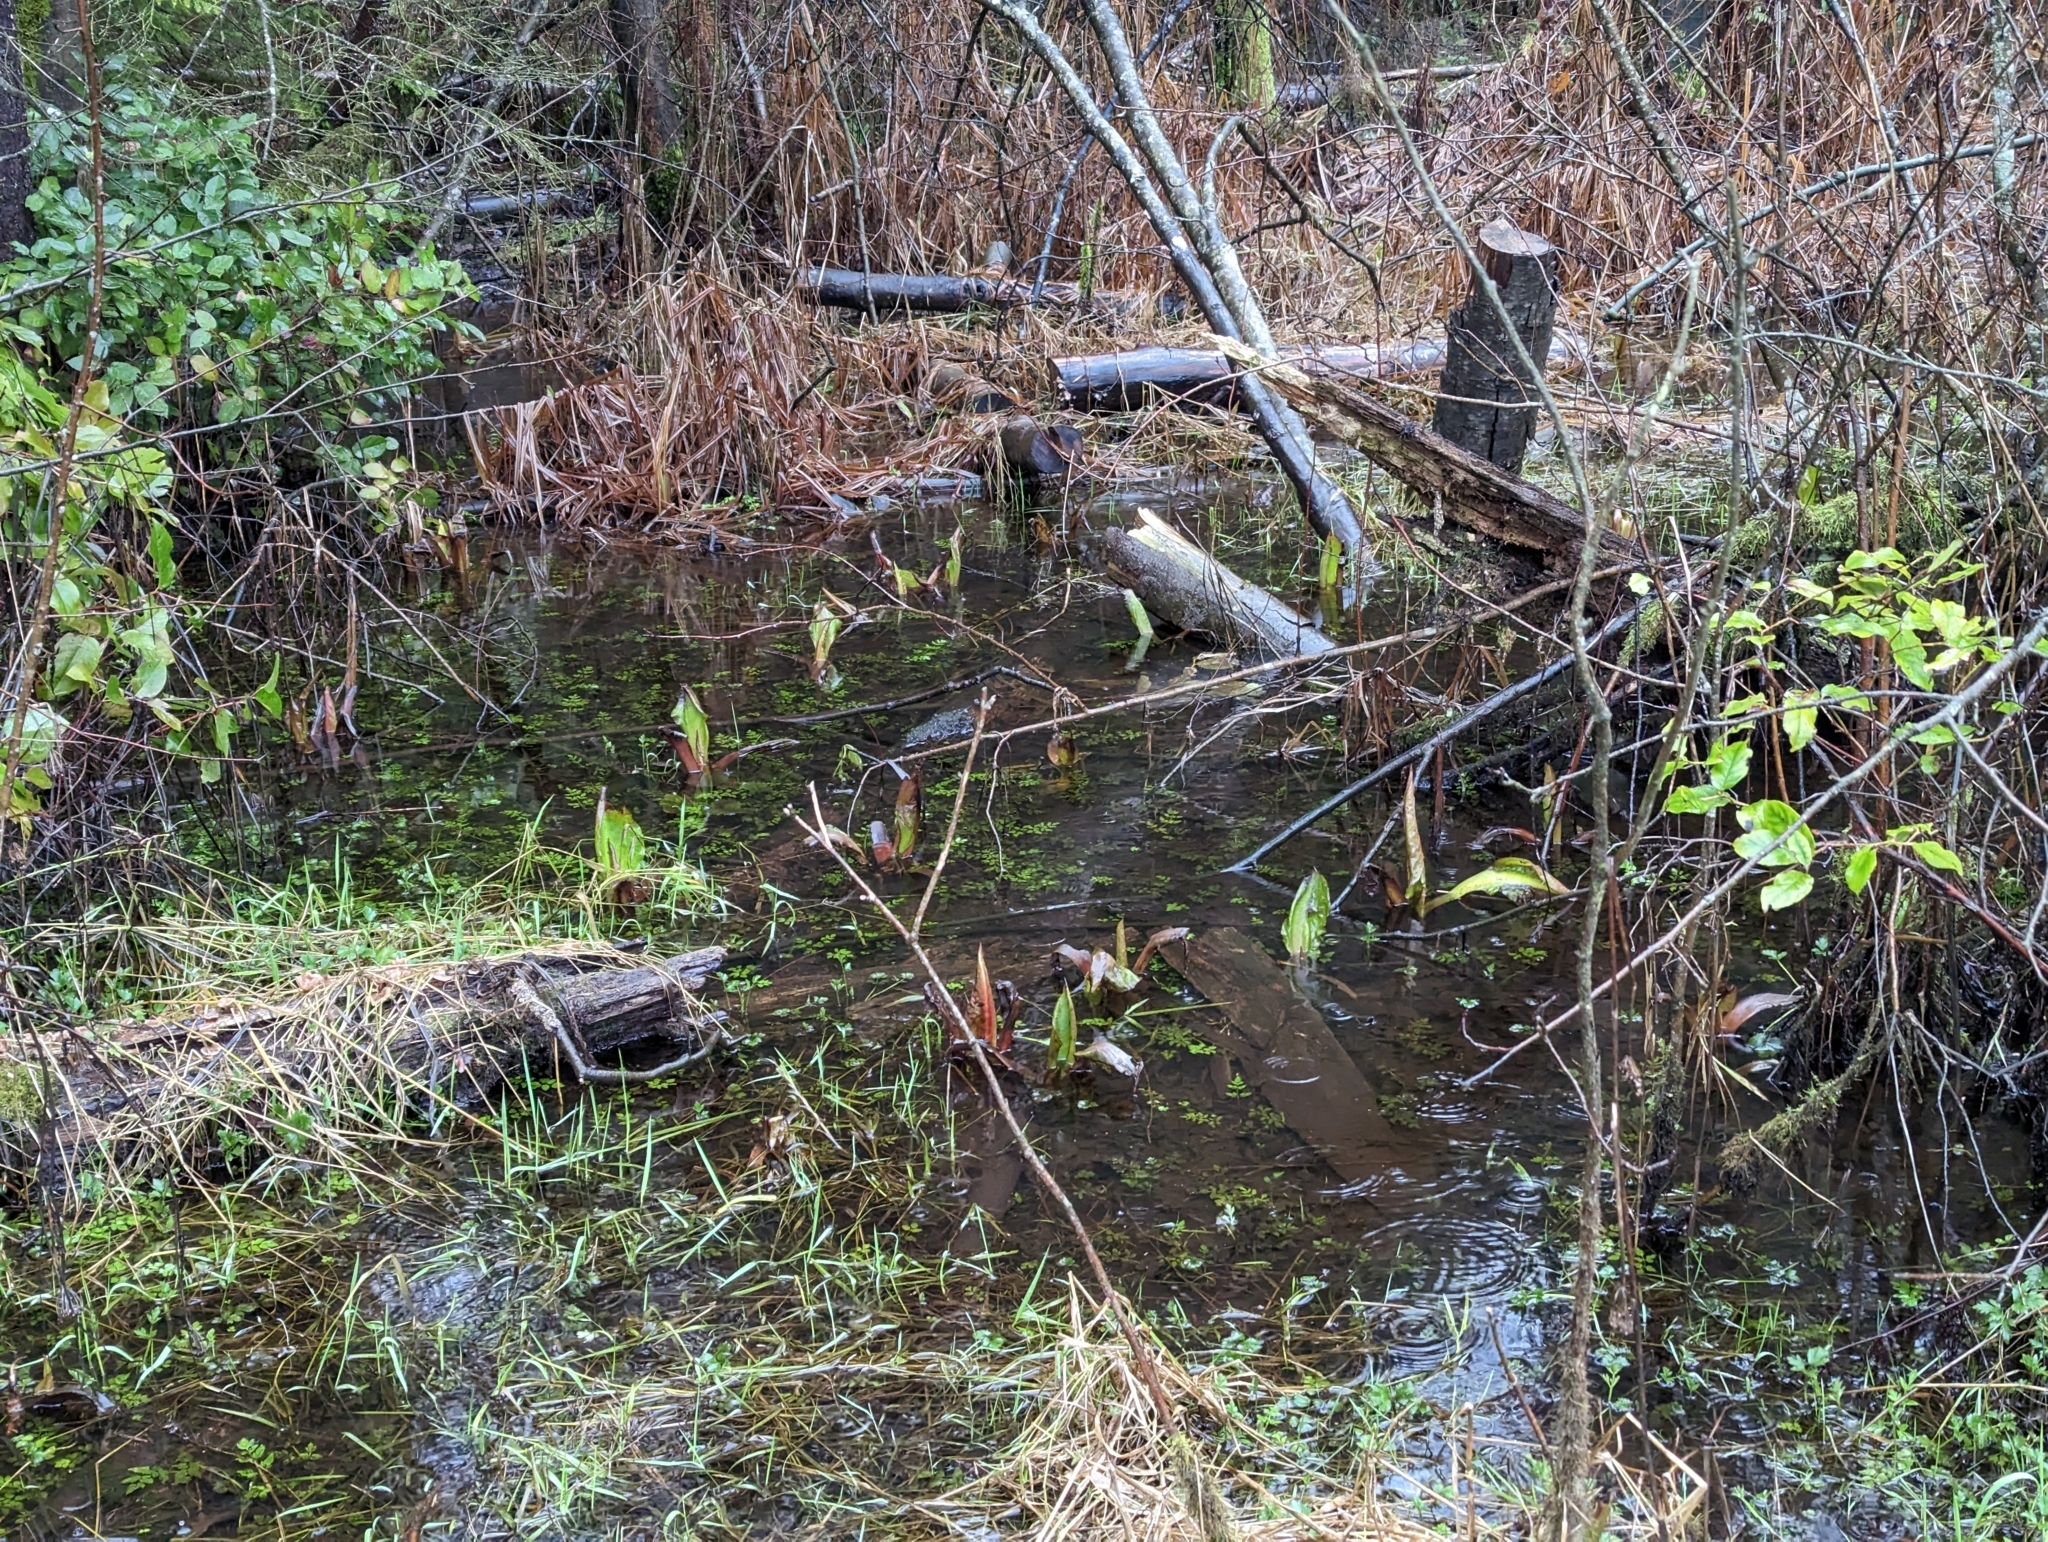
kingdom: Plantae
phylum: Tracheophyta
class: Liliopsida
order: Alismatales
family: Araceae
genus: Lysichiton
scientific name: Lysichiton americanus
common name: American skunk cabbage
